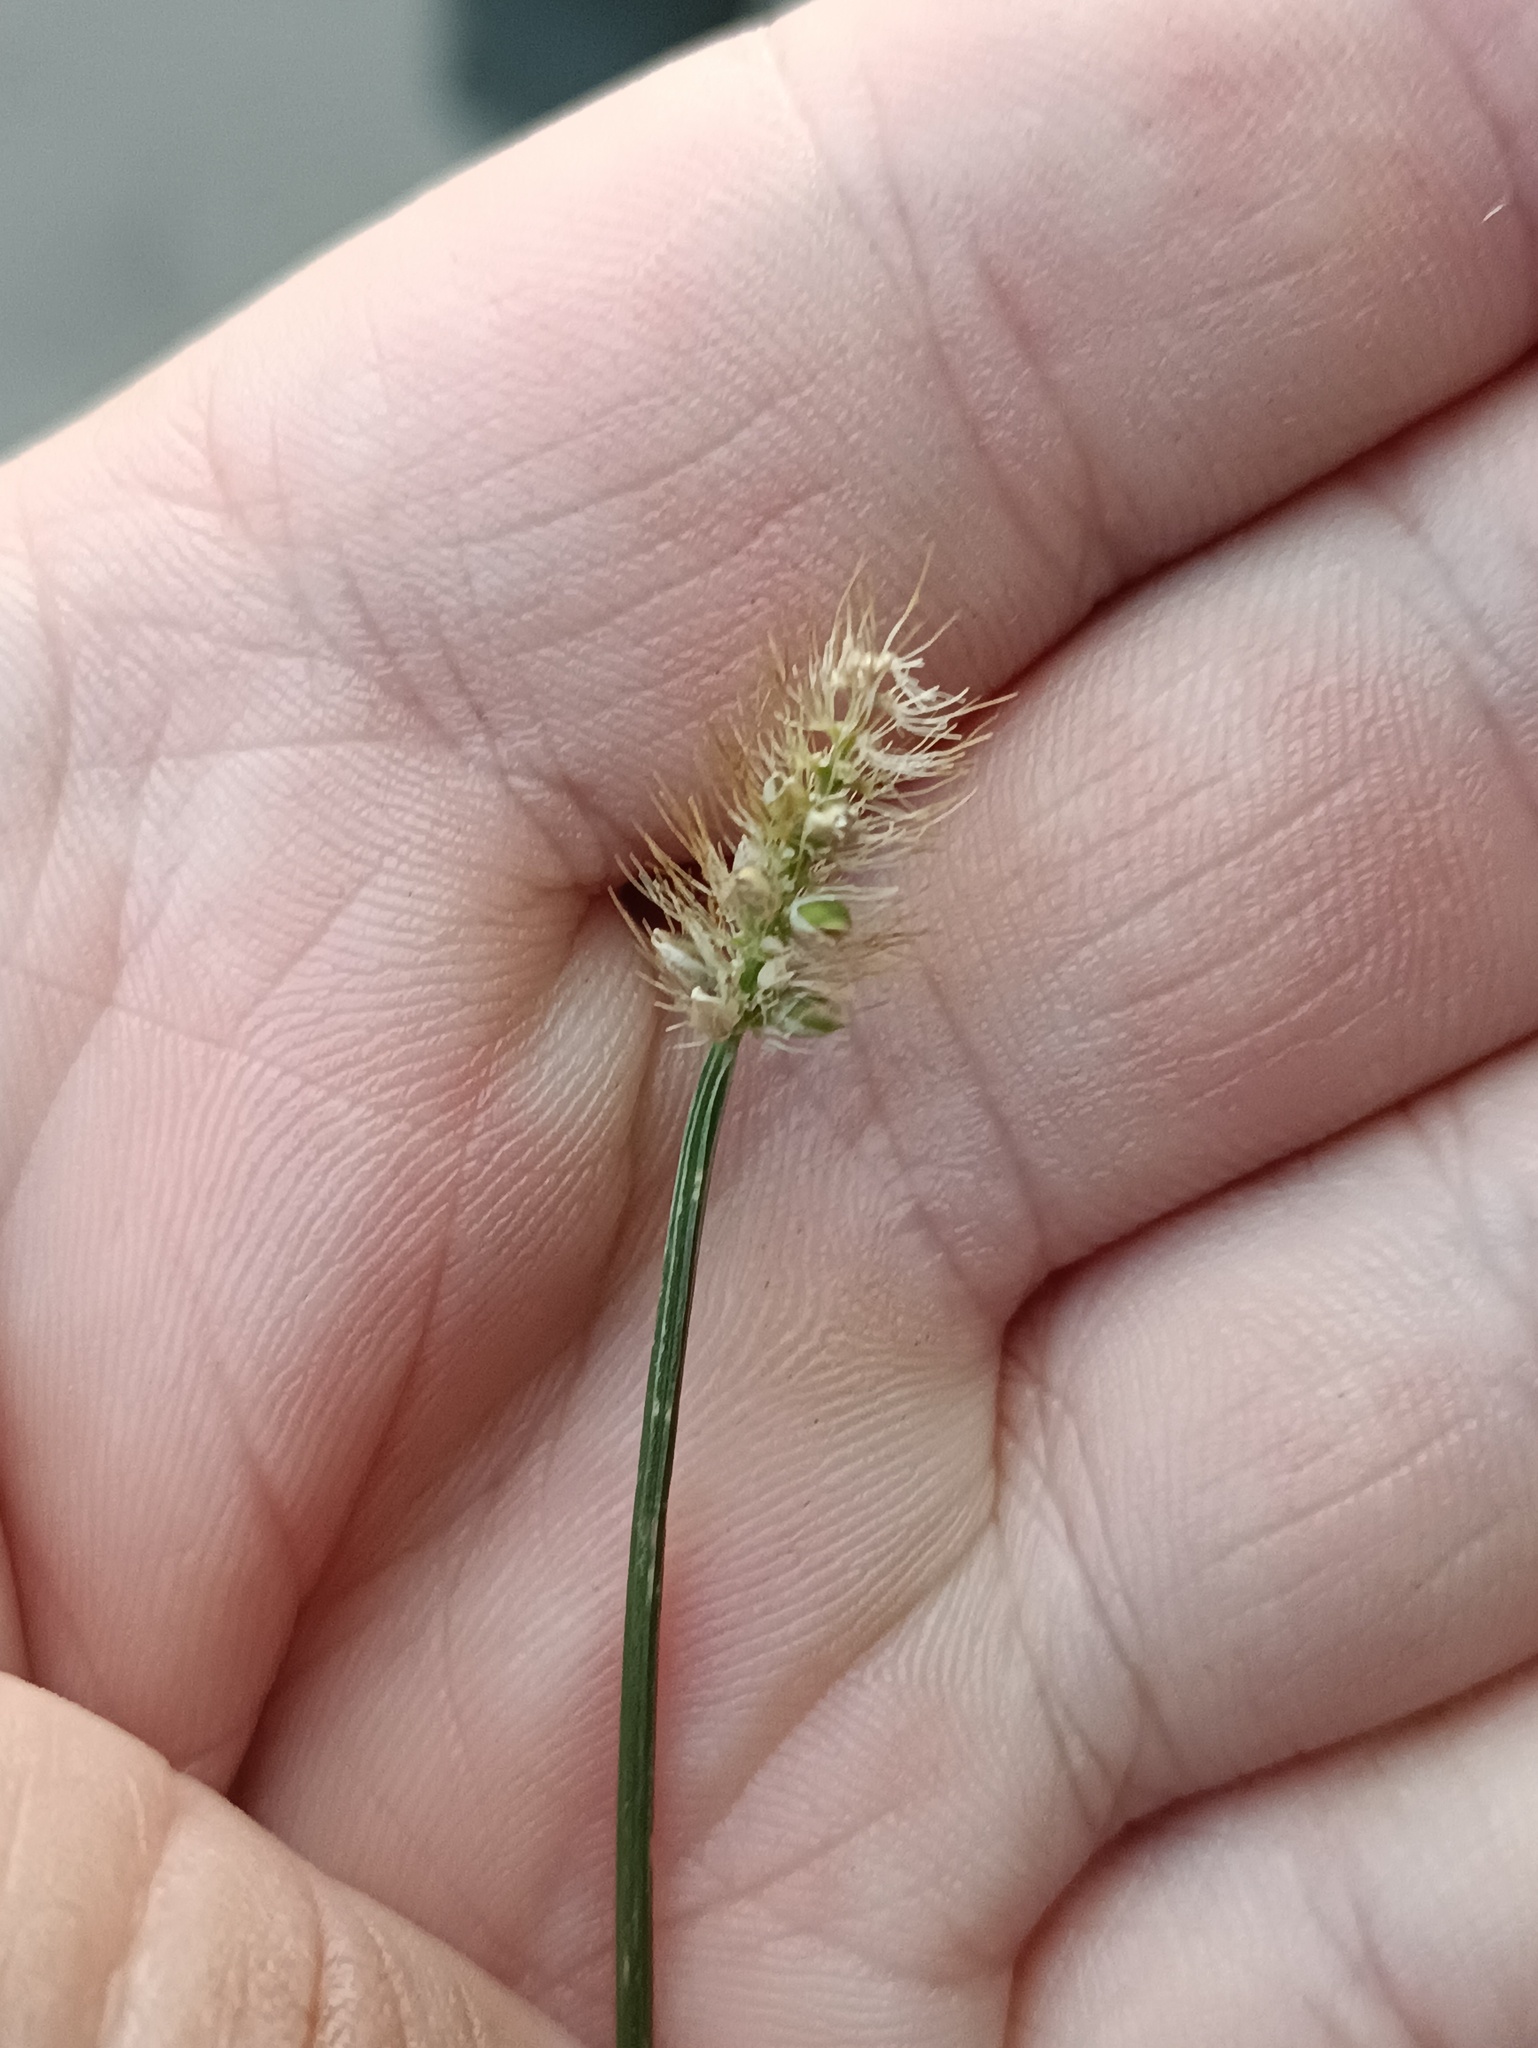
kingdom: Plantae
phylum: Tracheophyta
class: Liliopsida
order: Poales
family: Poaceae
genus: Setaria
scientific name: Setaria pumila
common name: Yellow bristle-grass
